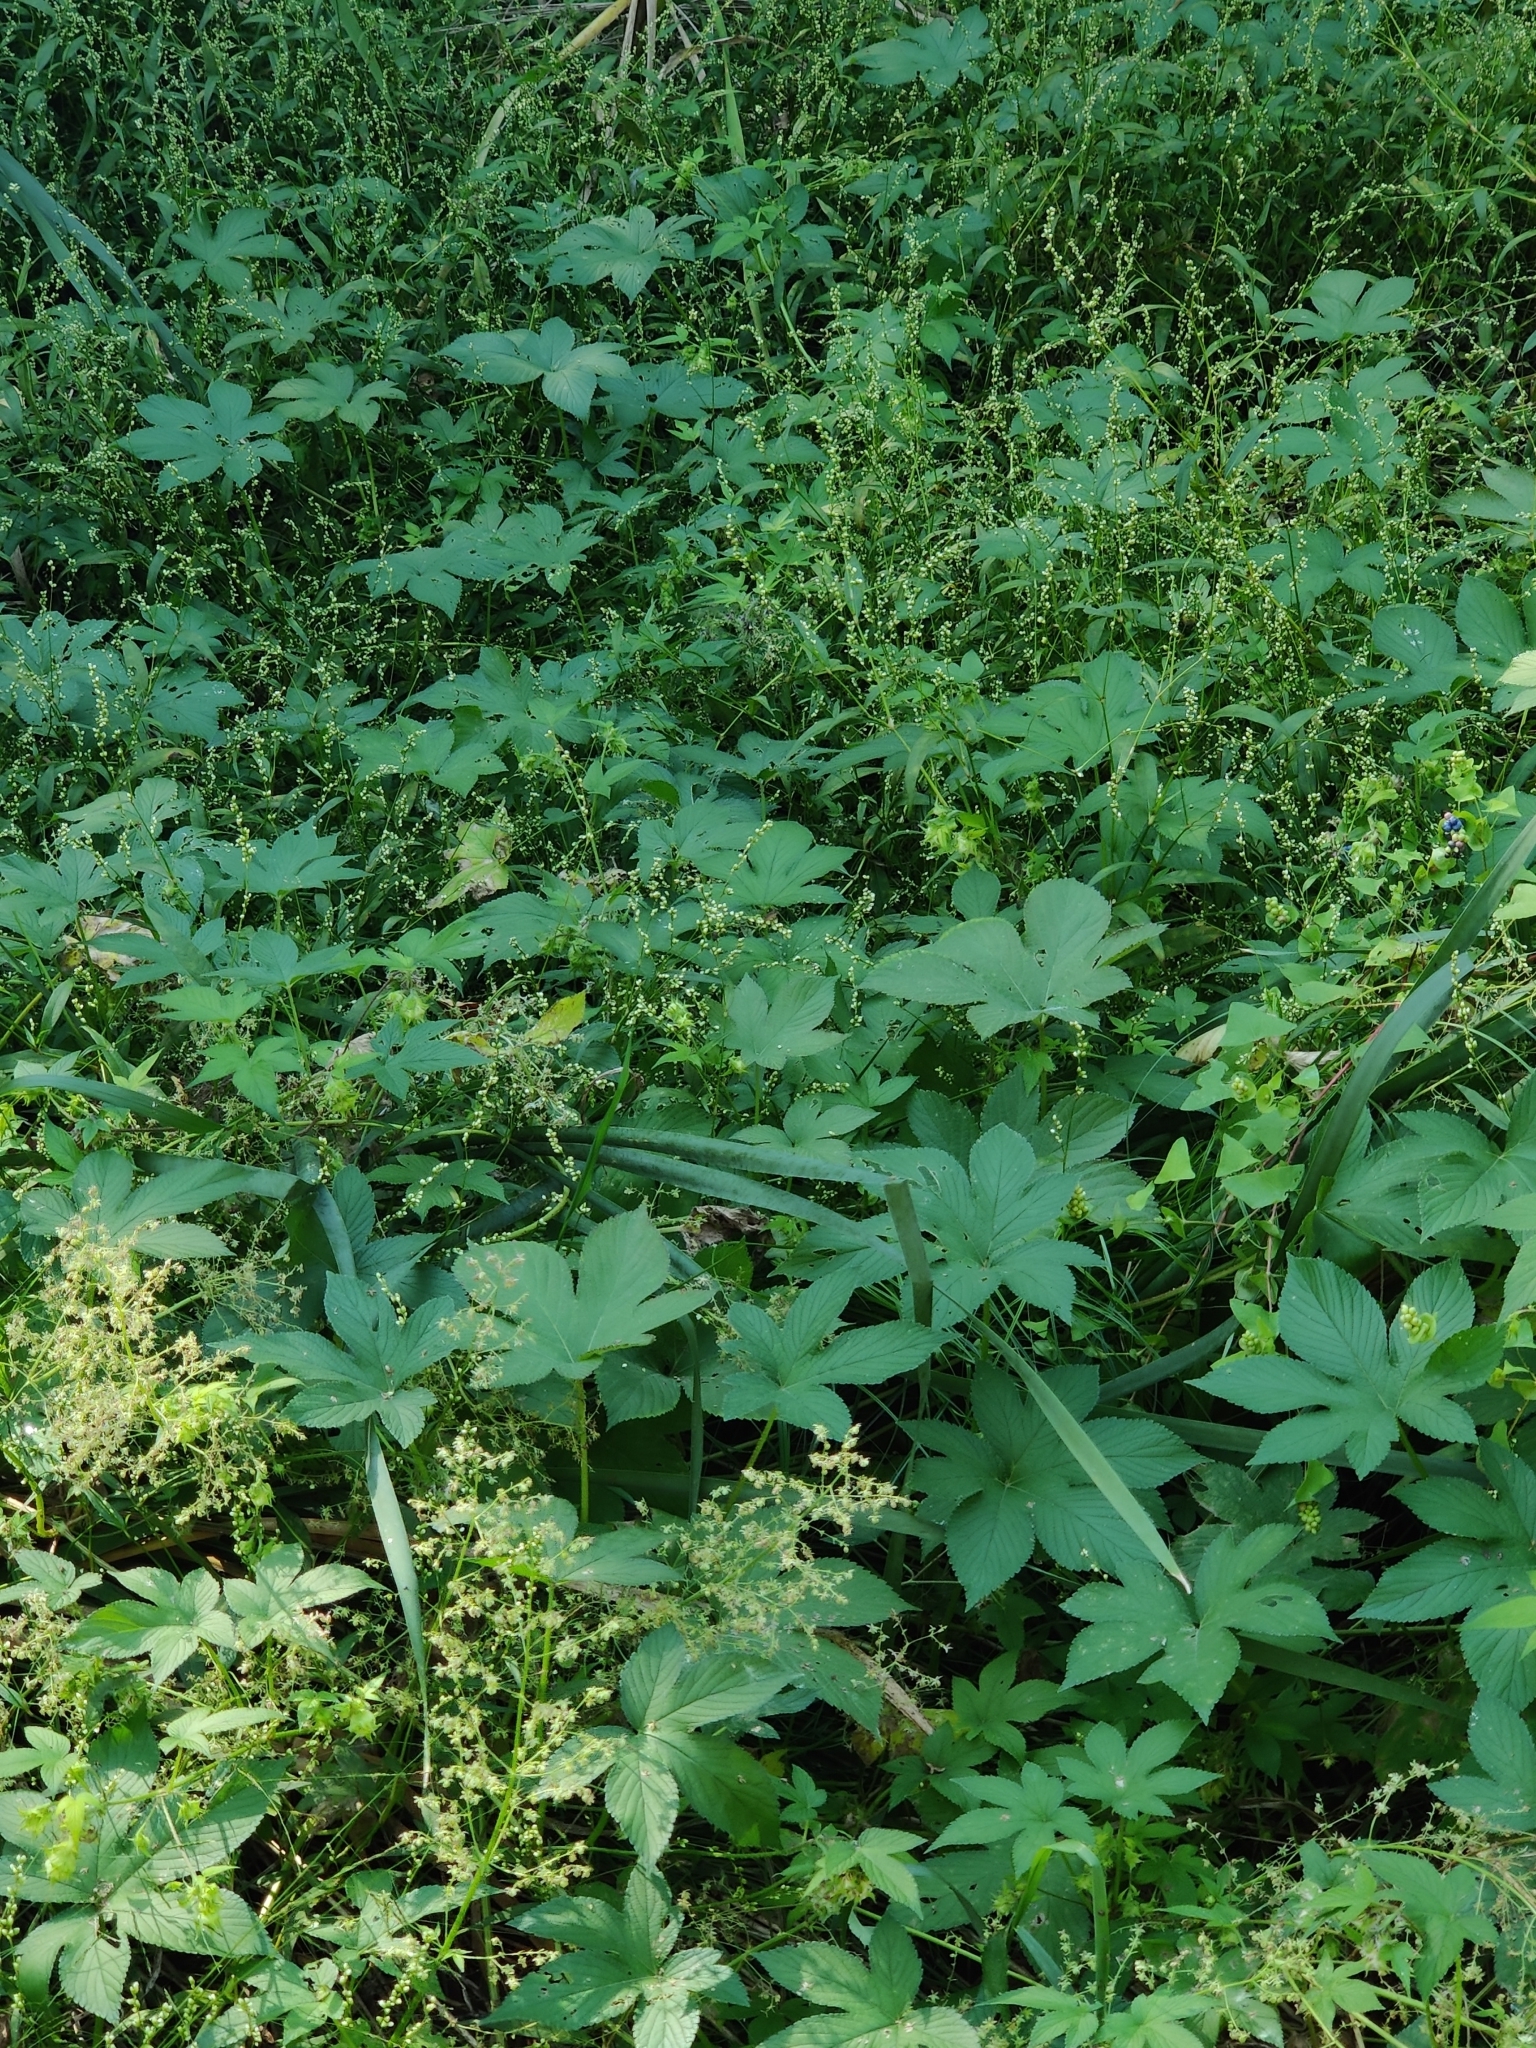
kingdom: Plantae
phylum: Tracheophyta
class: Magnoliopsida
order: Rosales
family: Cannabaceae
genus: Humulus
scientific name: Humulus scandens
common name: Japanese hop
